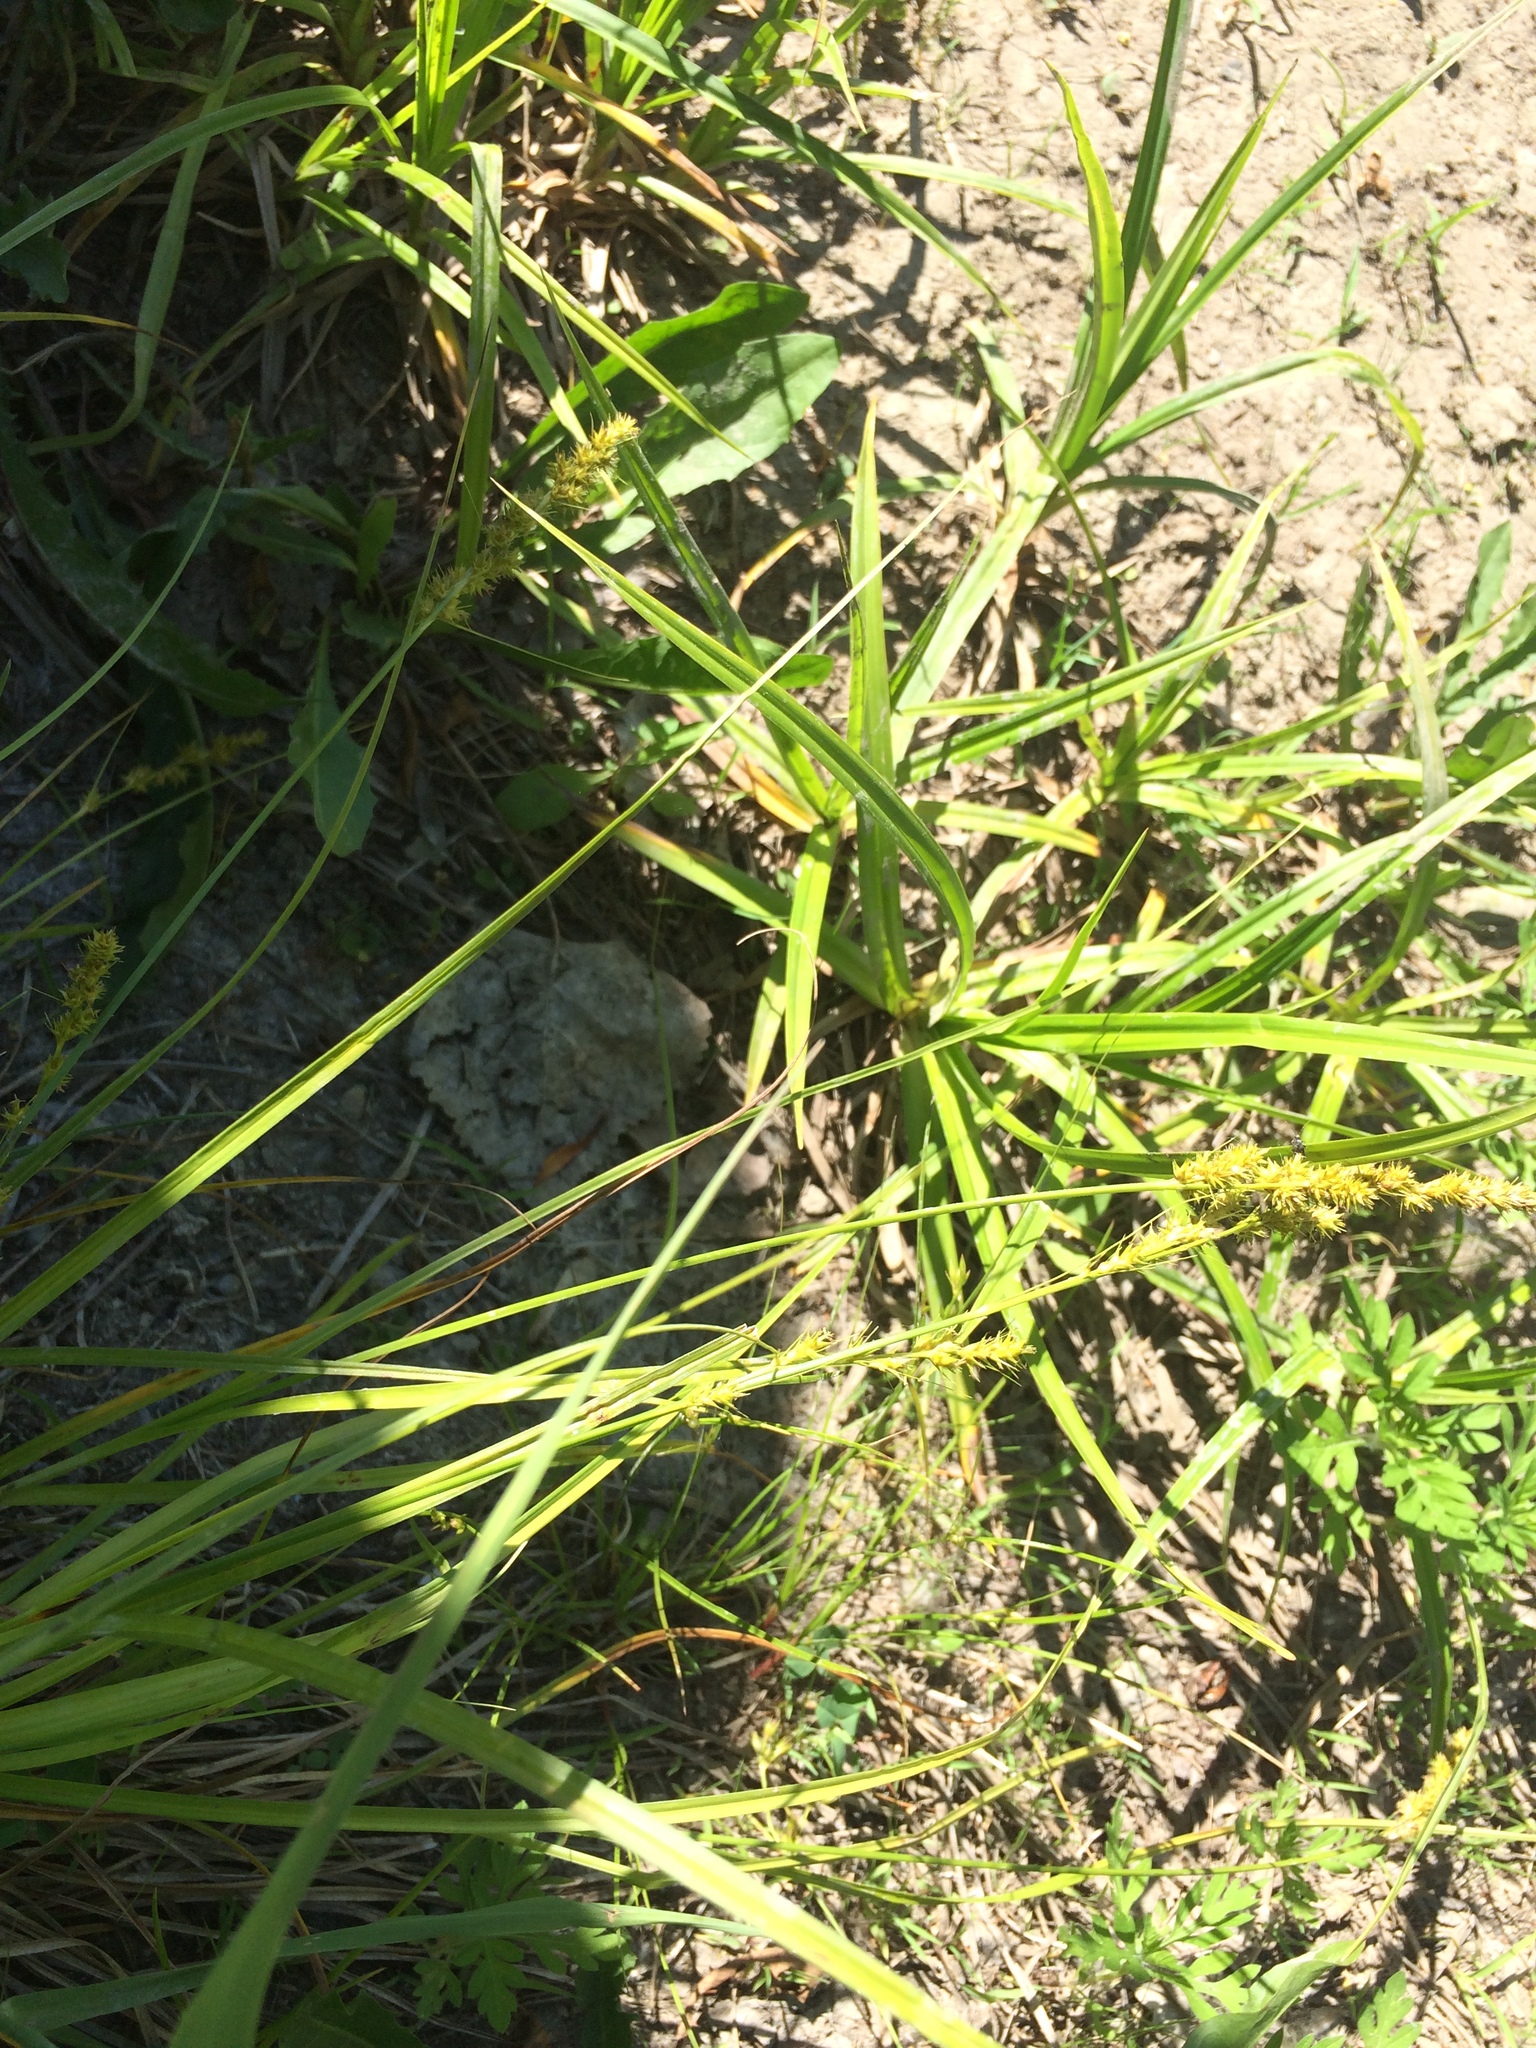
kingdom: Plantae
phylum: Tracheophyta
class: Liliopsida
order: Poales
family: Cyperaceae
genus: Carex
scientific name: Carex vulpinoidea
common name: American fox-sedge
